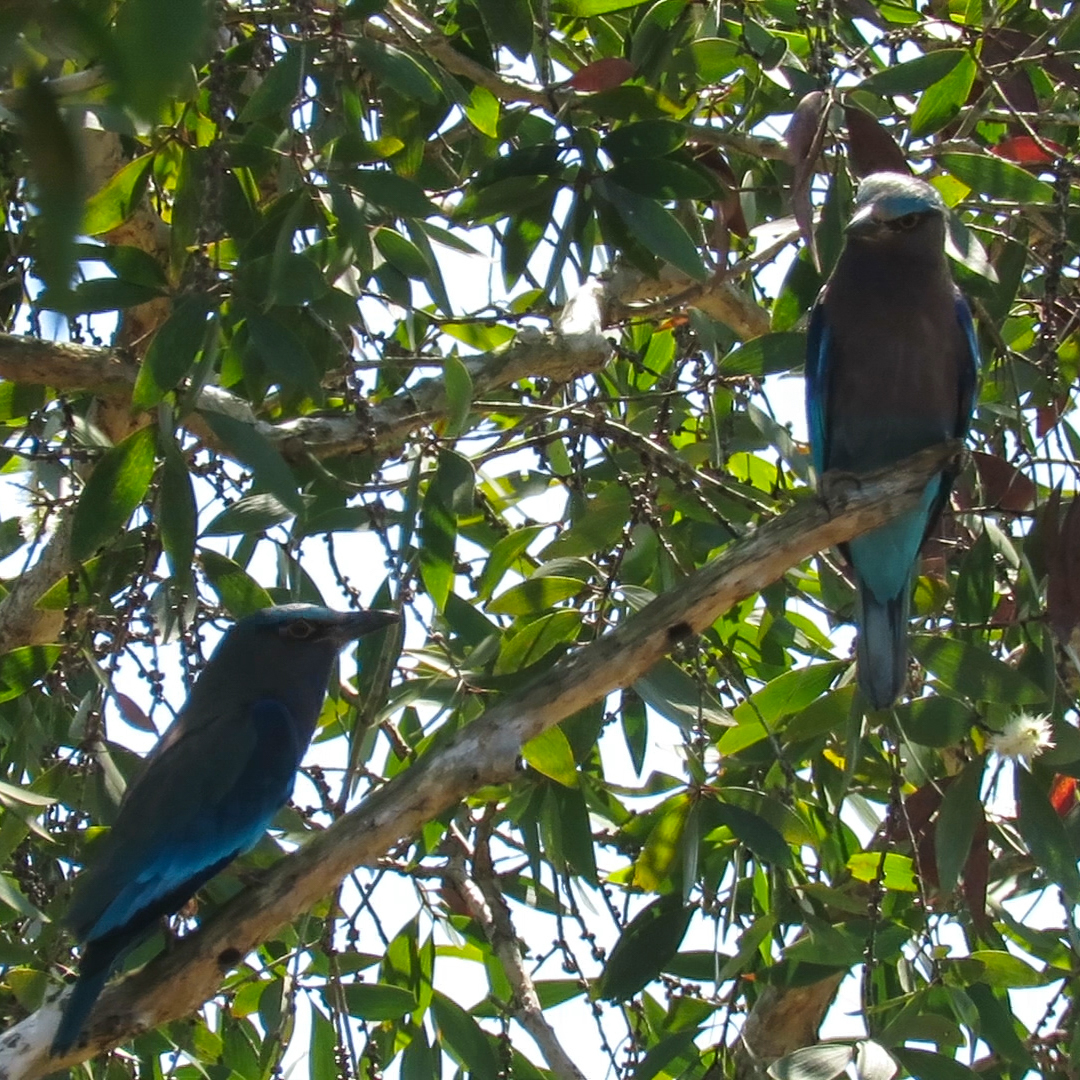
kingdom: Animalia
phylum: Chordata
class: Aves
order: Coraciiformes
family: Coraciidae
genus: Coracias
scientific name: Coracias affinis
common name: Indochinese roller
